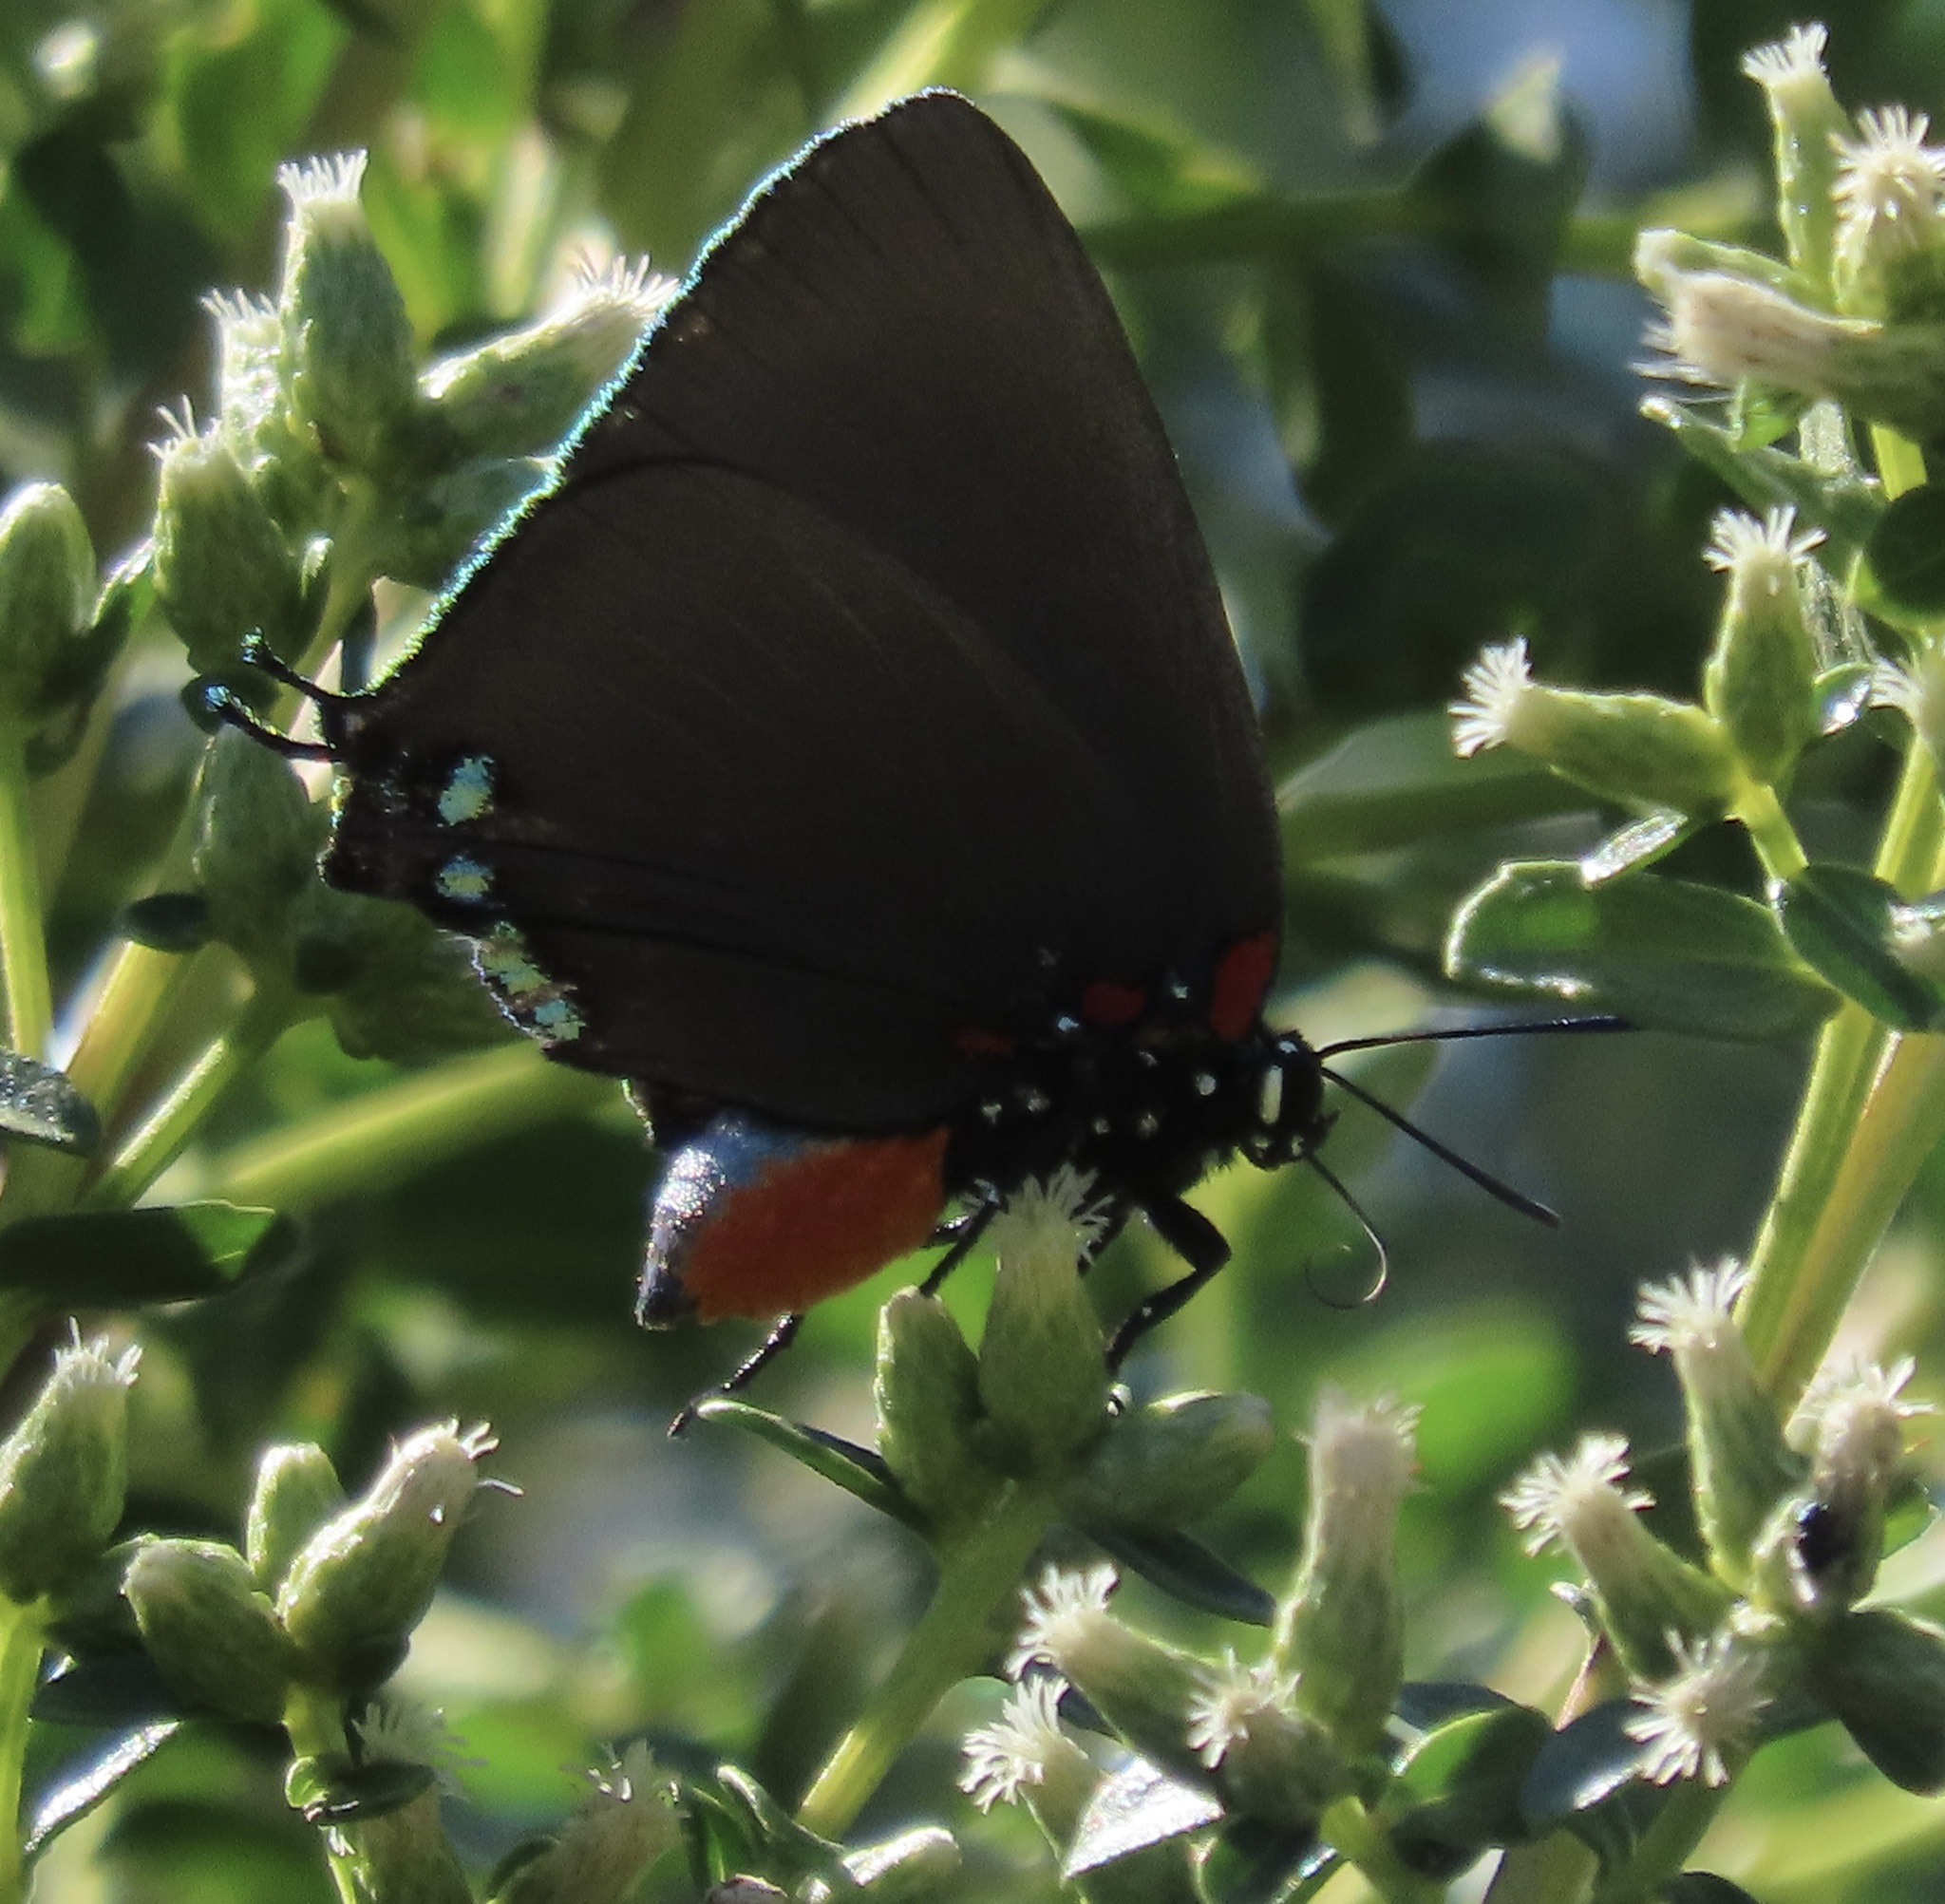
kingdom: Animalia
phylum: Arthropoda
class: Insecta
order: Lepidoptera
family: Lycaenidae
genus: Atlides
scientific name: Atlides halesus
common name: Great purple hairstreak
